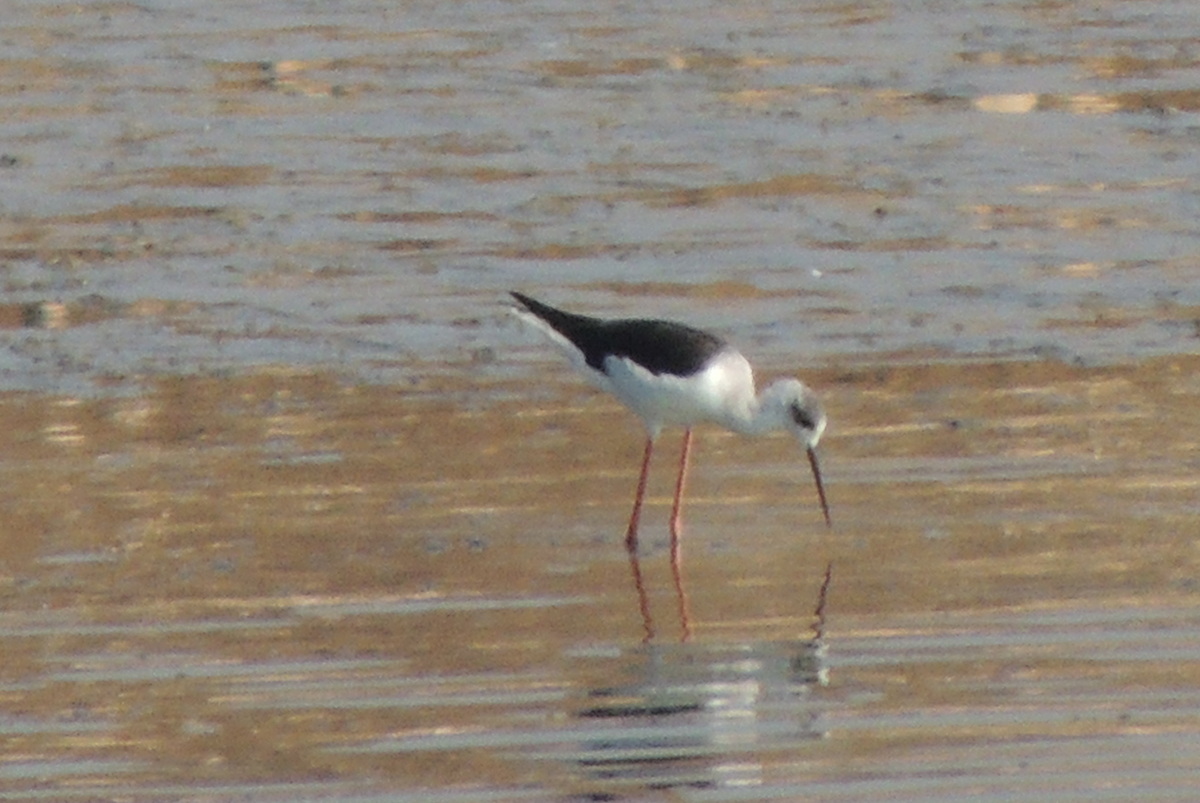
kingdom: Animalia
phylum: Chordata
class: Aves
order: Charadriiformes
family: Recurvirostridae
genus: Himantopus
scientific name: Himantopus himantopus
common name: Black-winged stilt
